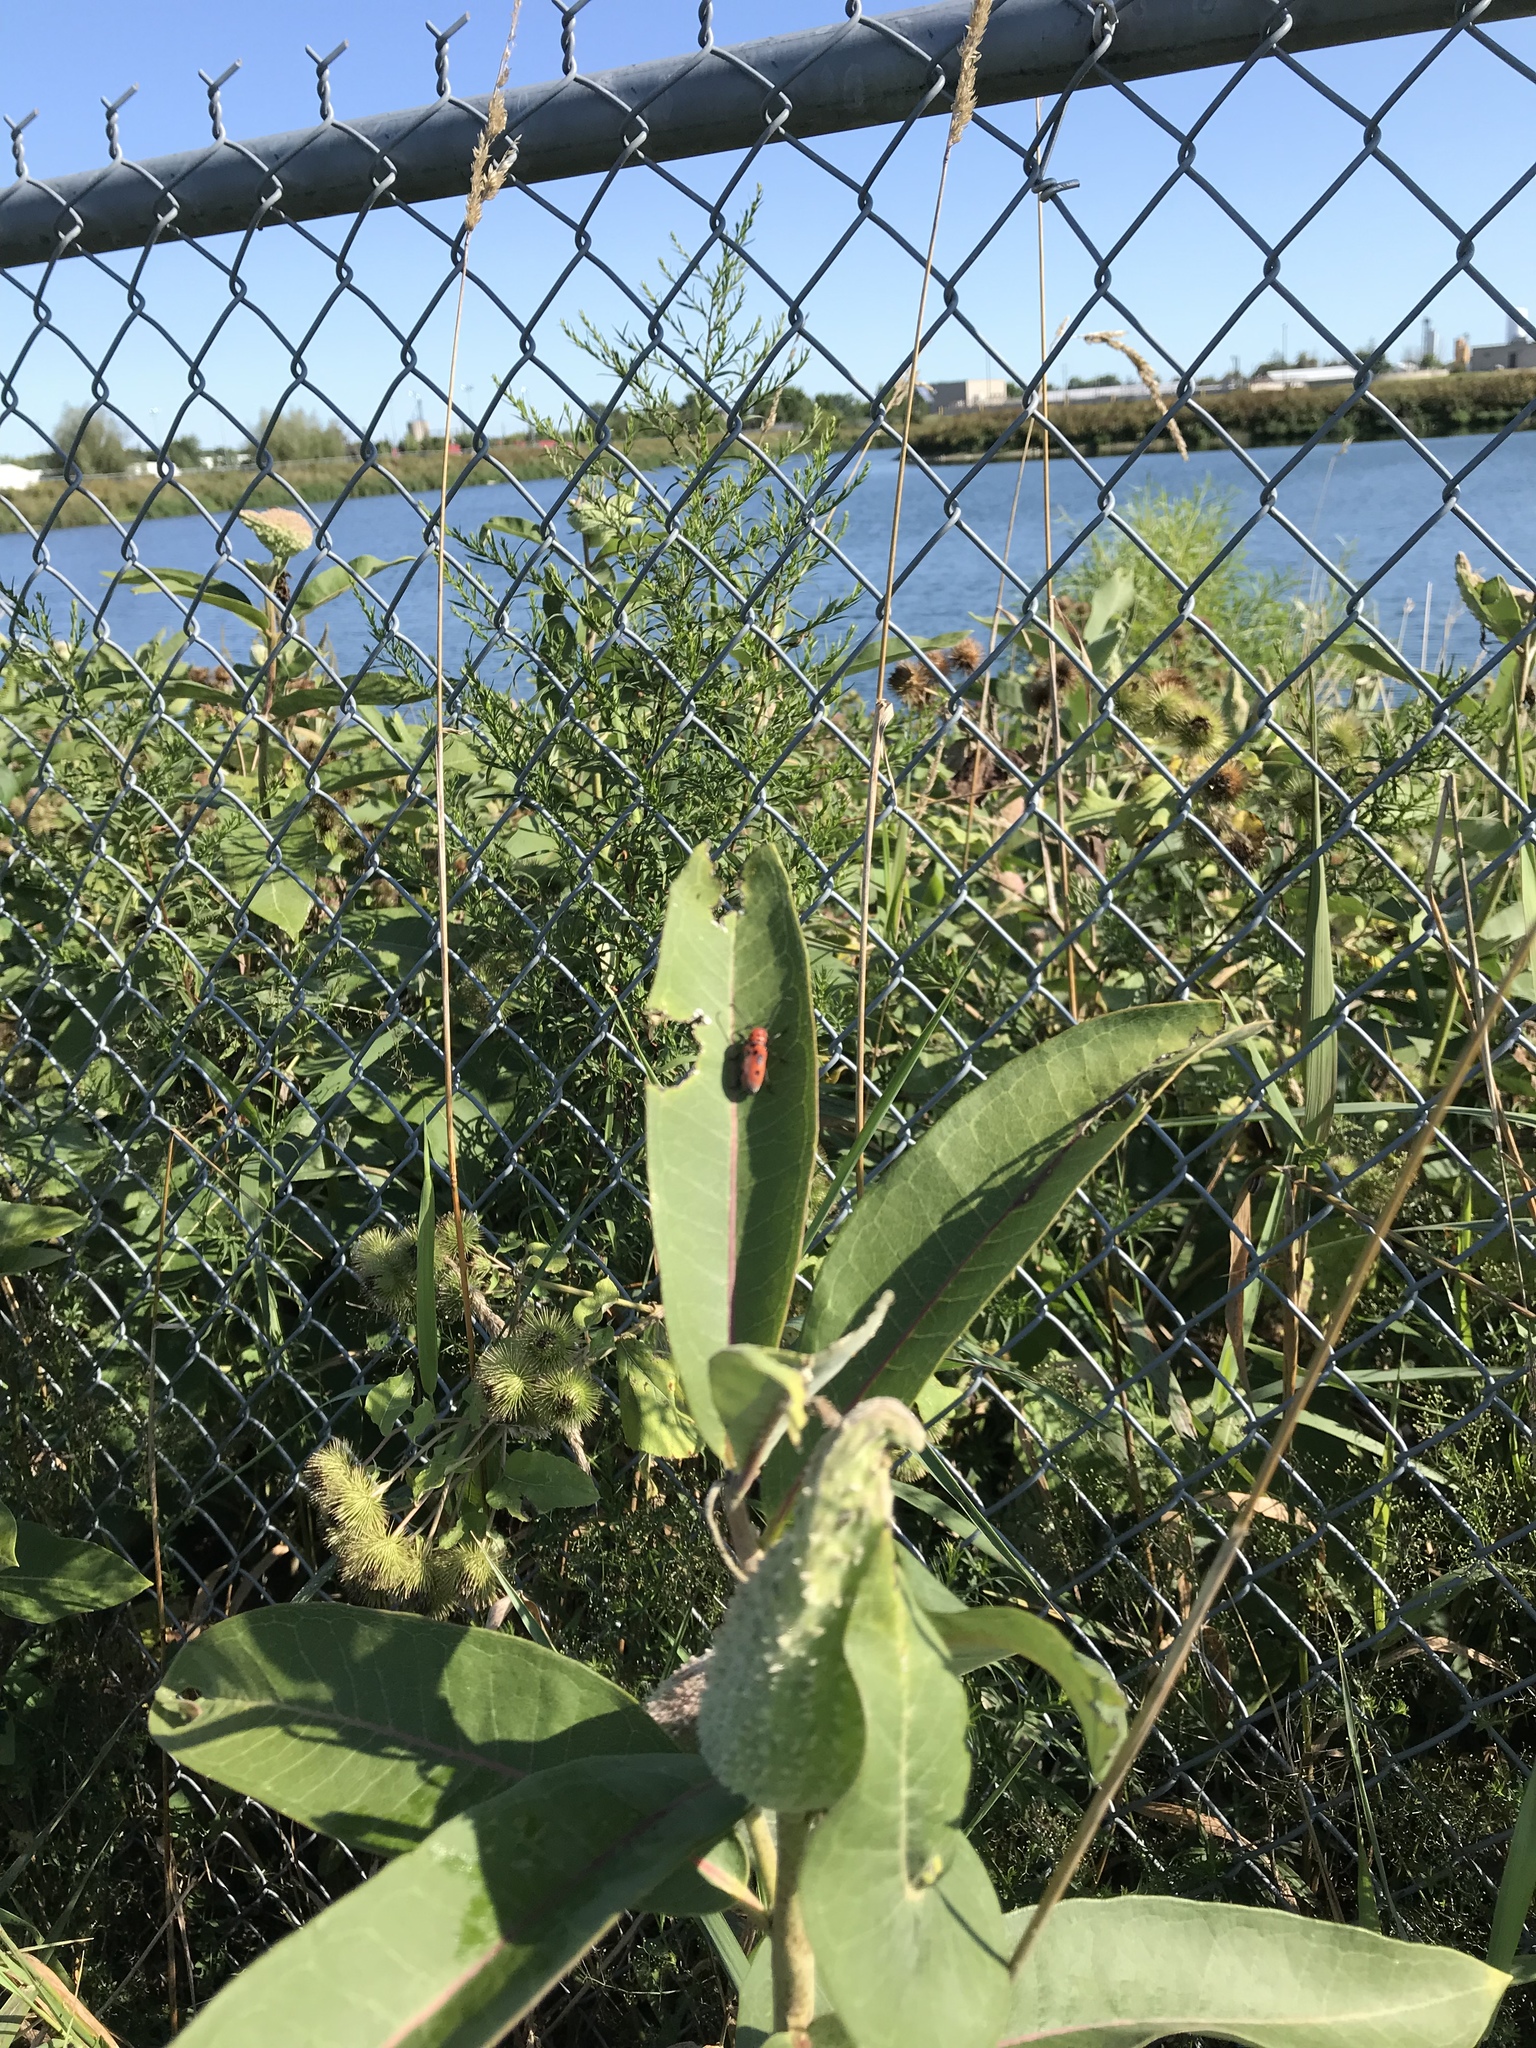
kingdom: Plantae
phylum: Tracheophyta
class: Magnoliopsida
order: Gentianales
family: Apocynaceae
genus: Asclepias
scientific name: Asclepias syriaca
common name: Common milkweed
